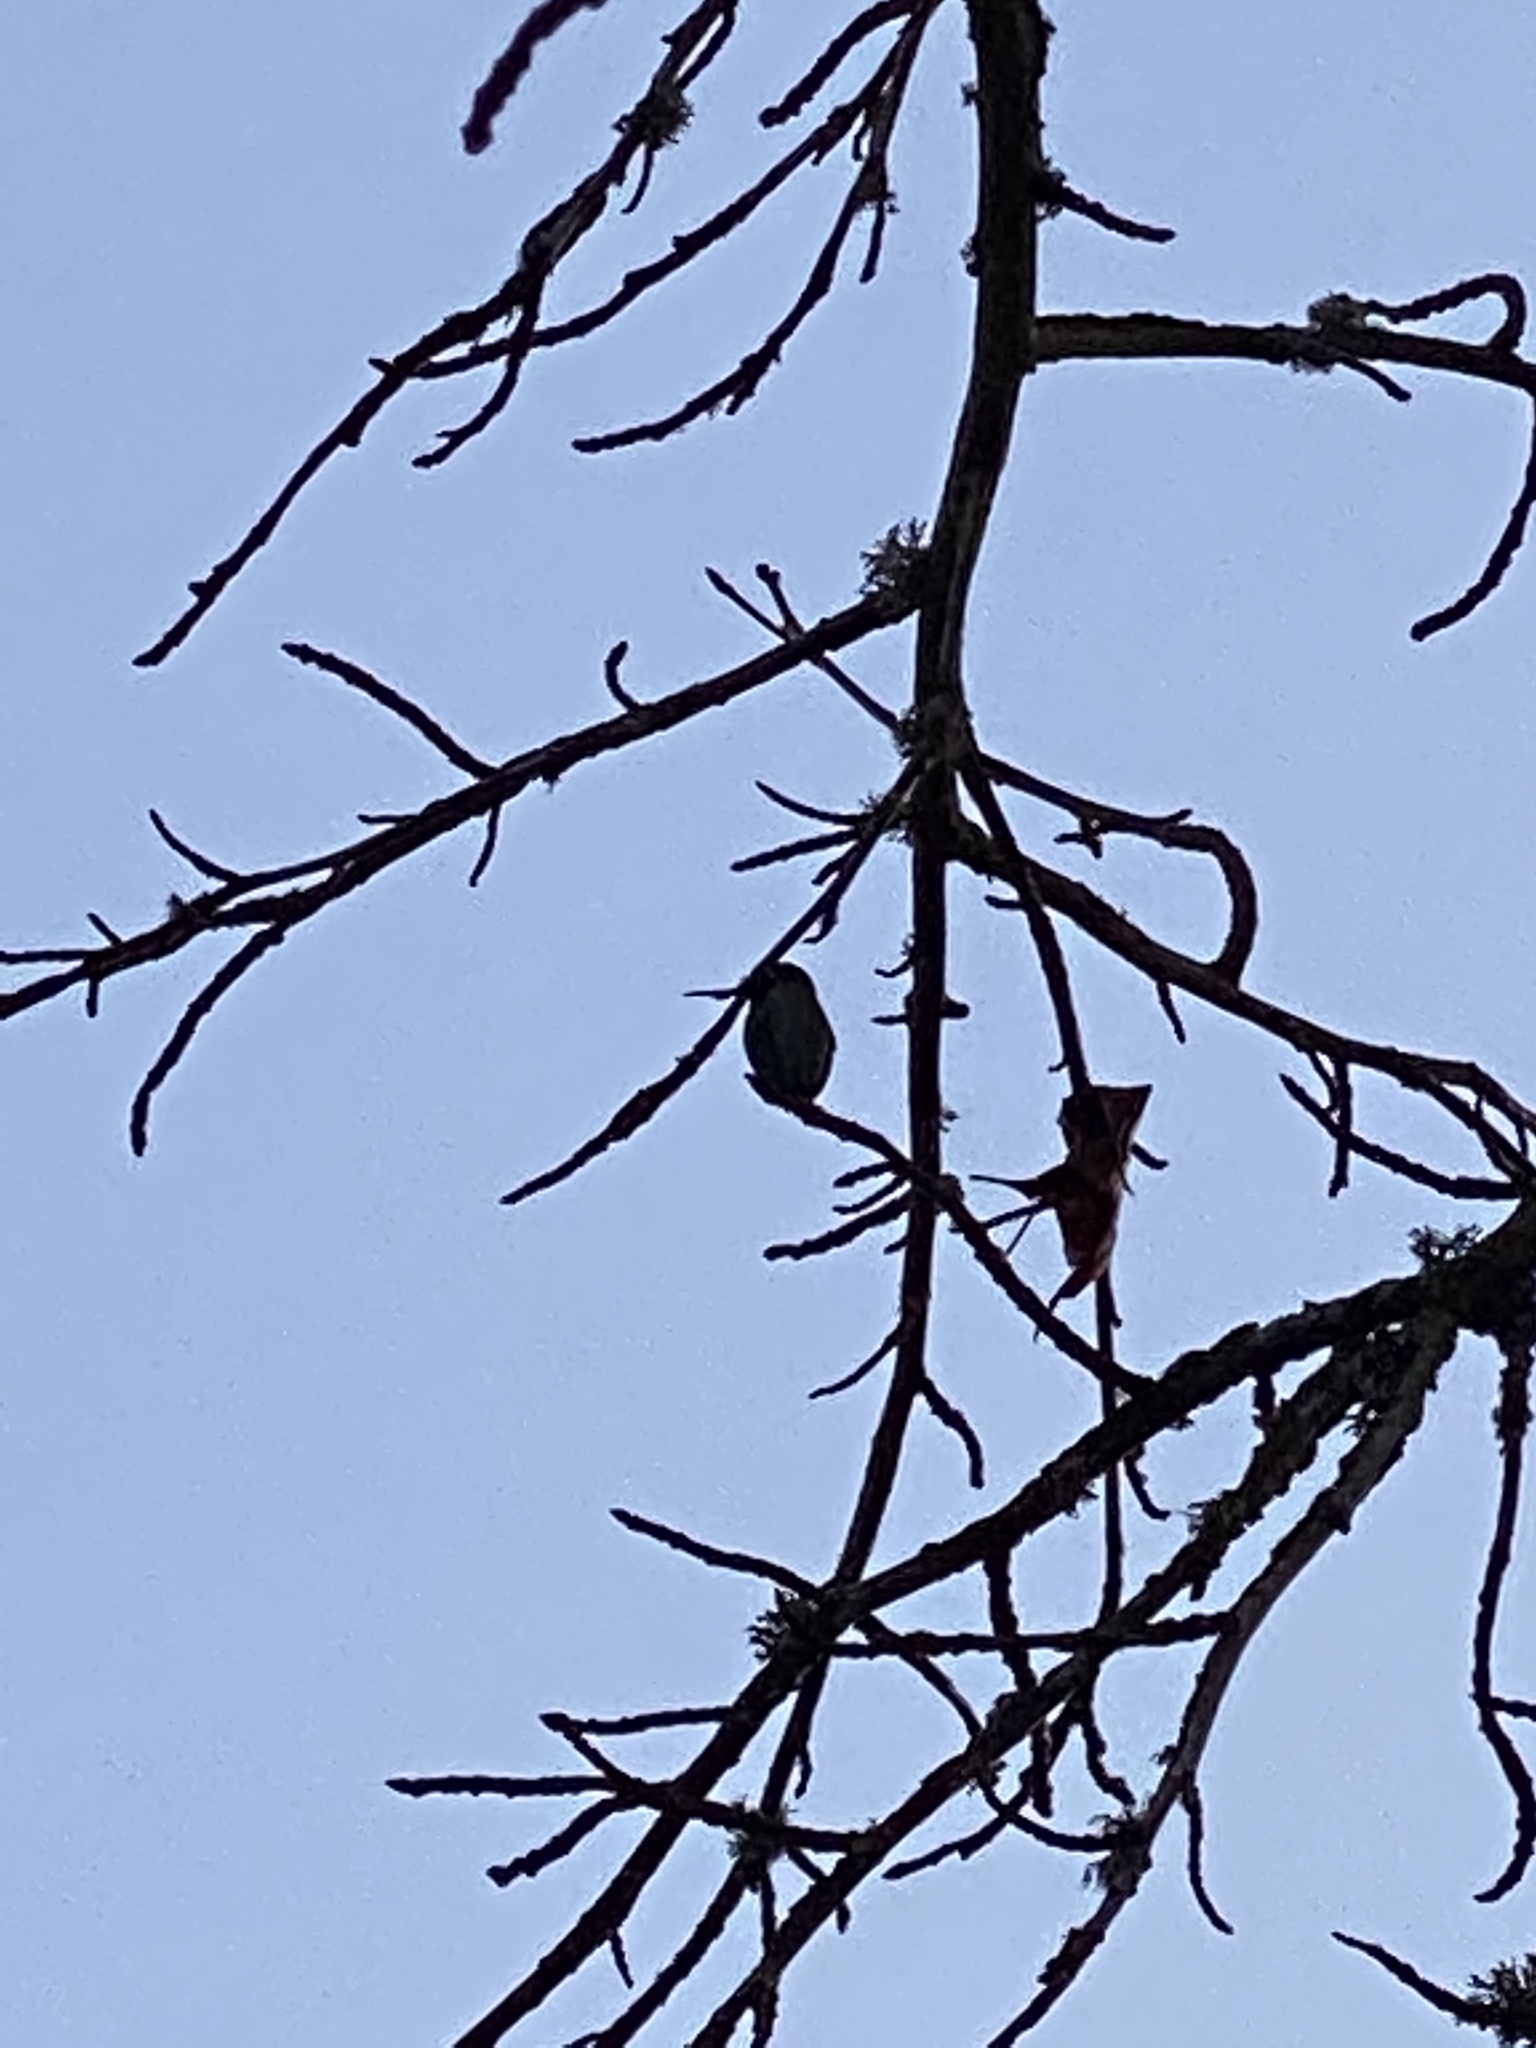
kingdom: Animalia
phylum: Chordata
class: Aves
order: Apodiformes
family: Trochilidae
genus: Calypte
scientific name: Calypte anna
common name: Anna's hummingbird
